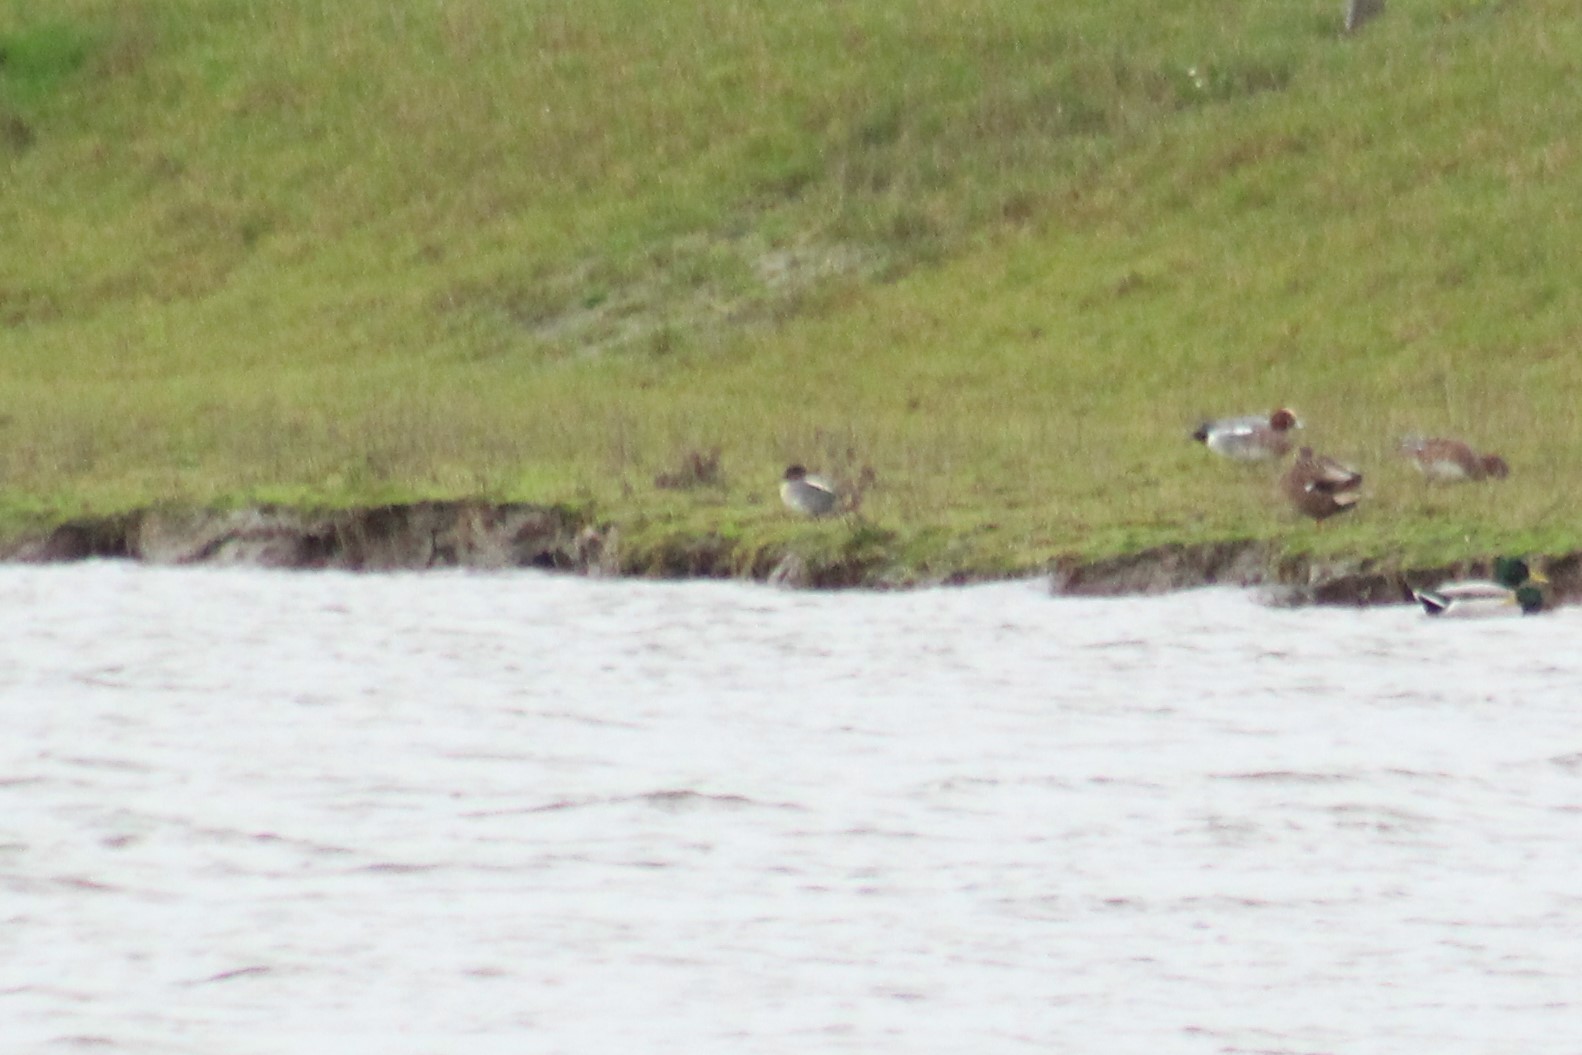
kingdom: Animalia
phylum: Chordata
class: Aves
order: Anseriformes
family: Anatidae
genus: Anas
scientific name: Anas crecca
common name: Eurasian teal
